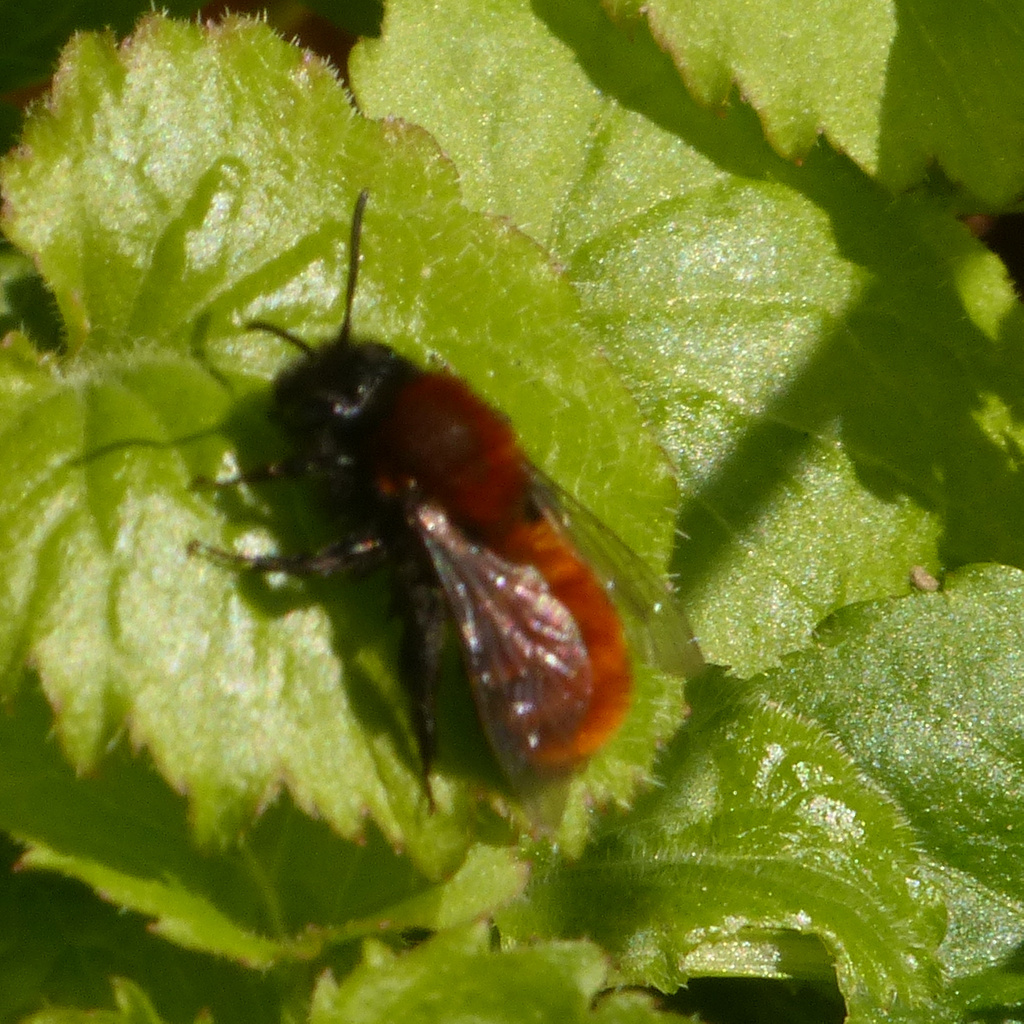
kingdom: Animalia
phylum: Arthropoda
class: Insecta
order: Hymenoptera
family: Andrenidae
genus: Andrena
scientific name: Andrena fulva
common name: Tawny mining bee
